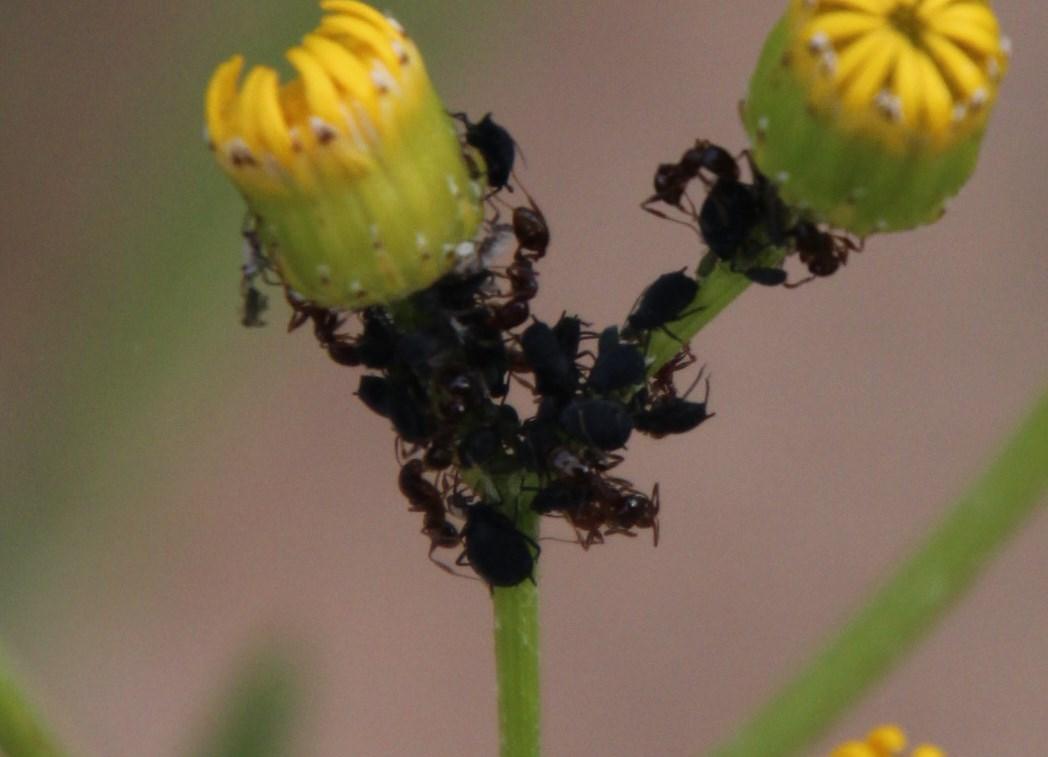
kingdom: Plantae
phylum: Tracheophyta
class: Magnoliopsida
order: Asterales
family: Asteraceae
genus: Senecio
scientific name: Senecio pterophorus
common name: Shoddy ragwort
